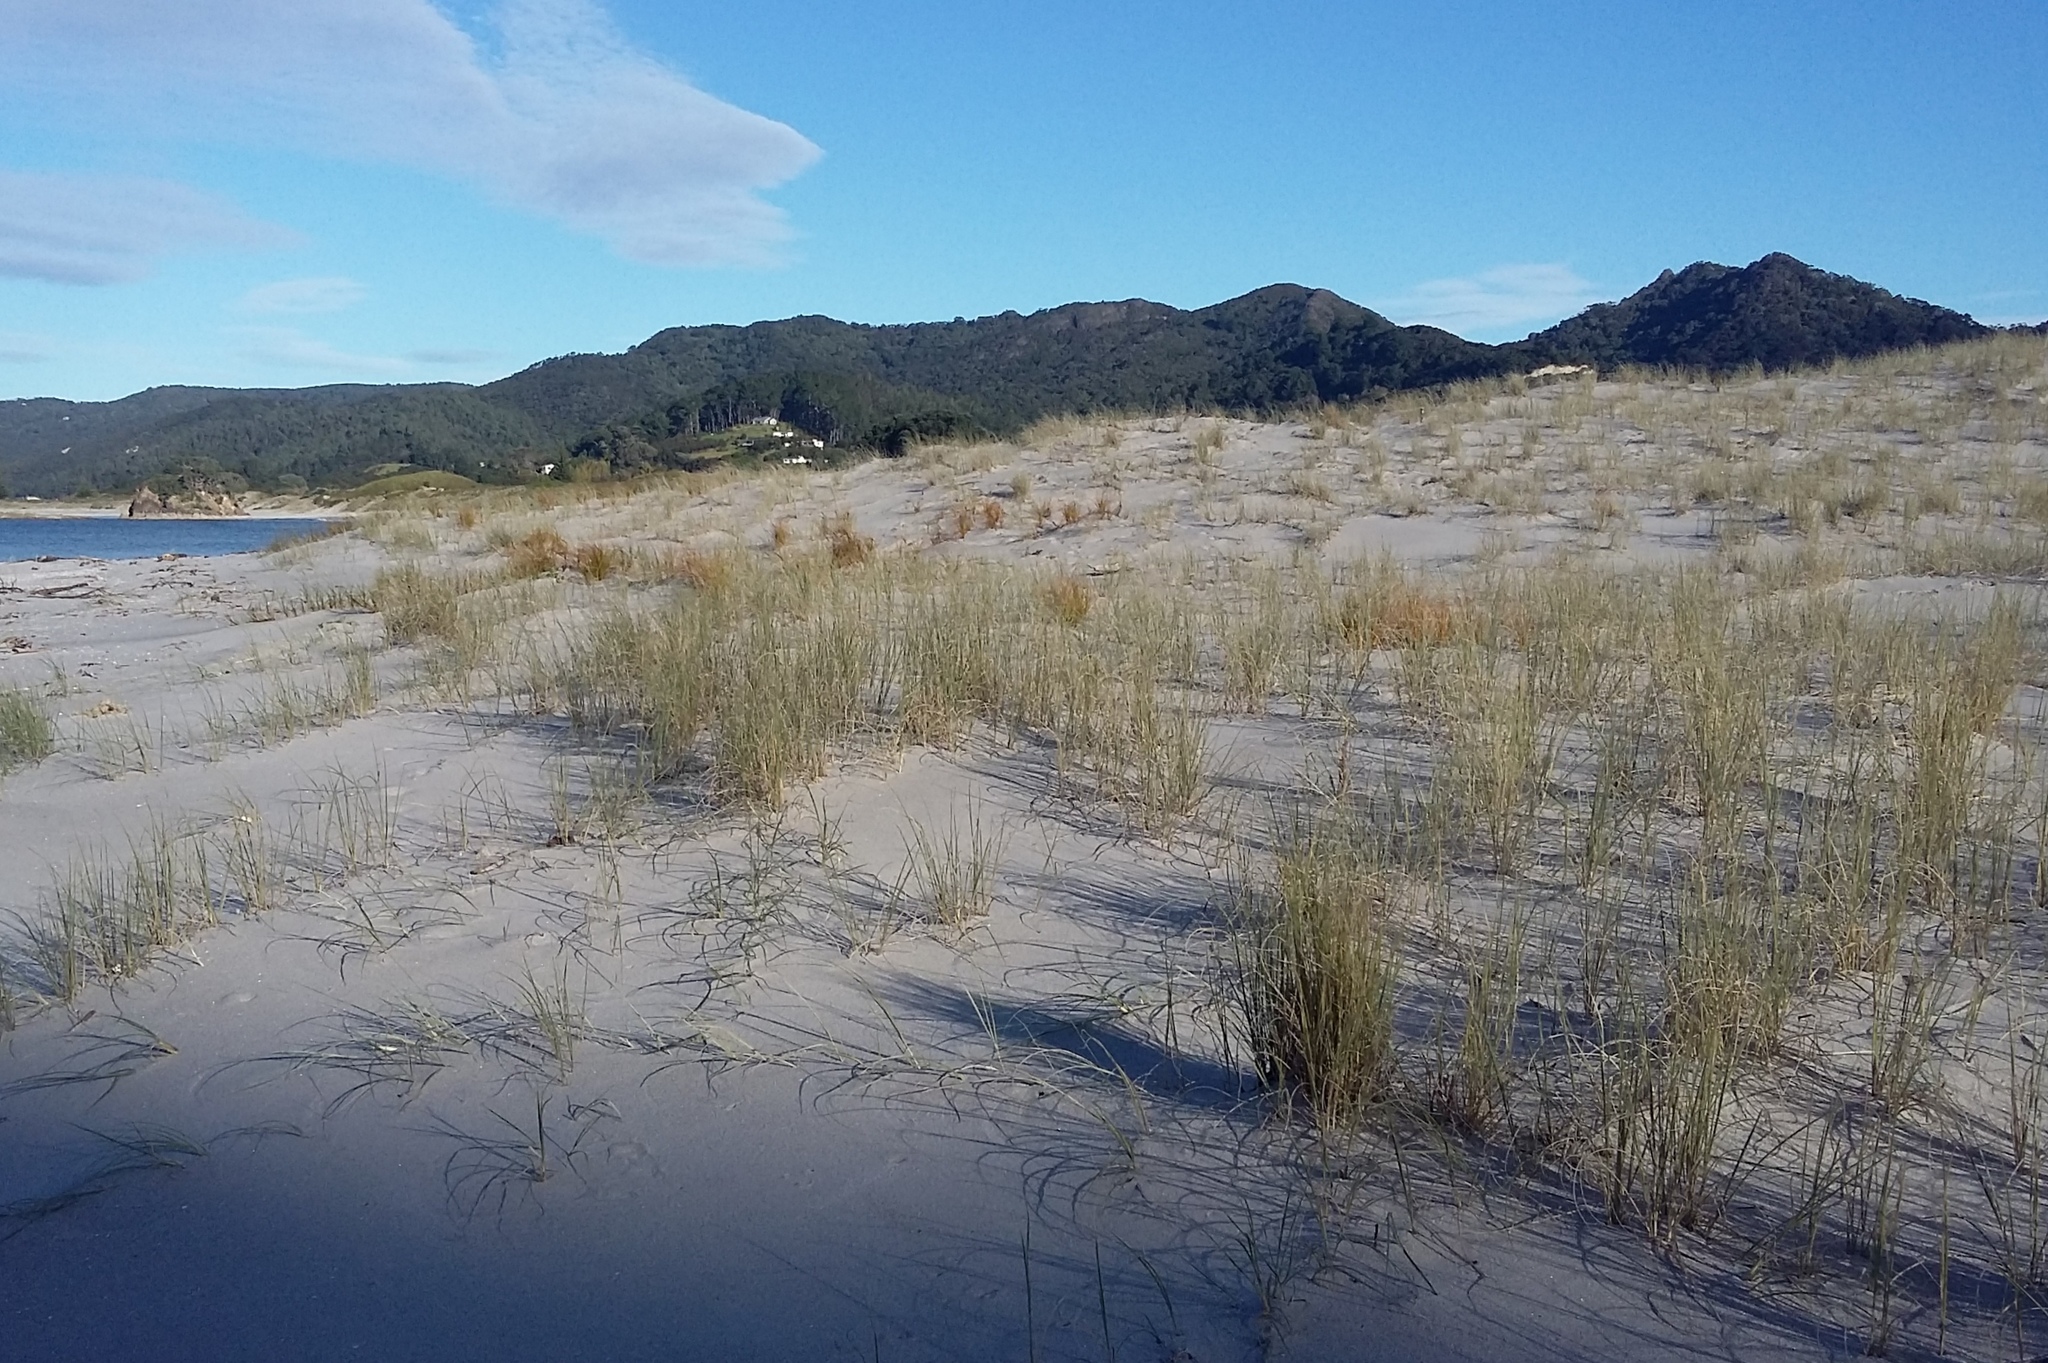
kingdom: Plantae
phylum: Tracheophyta
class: Liliopsida
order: Poales
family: Poaceae
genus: Spinifex
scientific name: Spinifex sericeus
